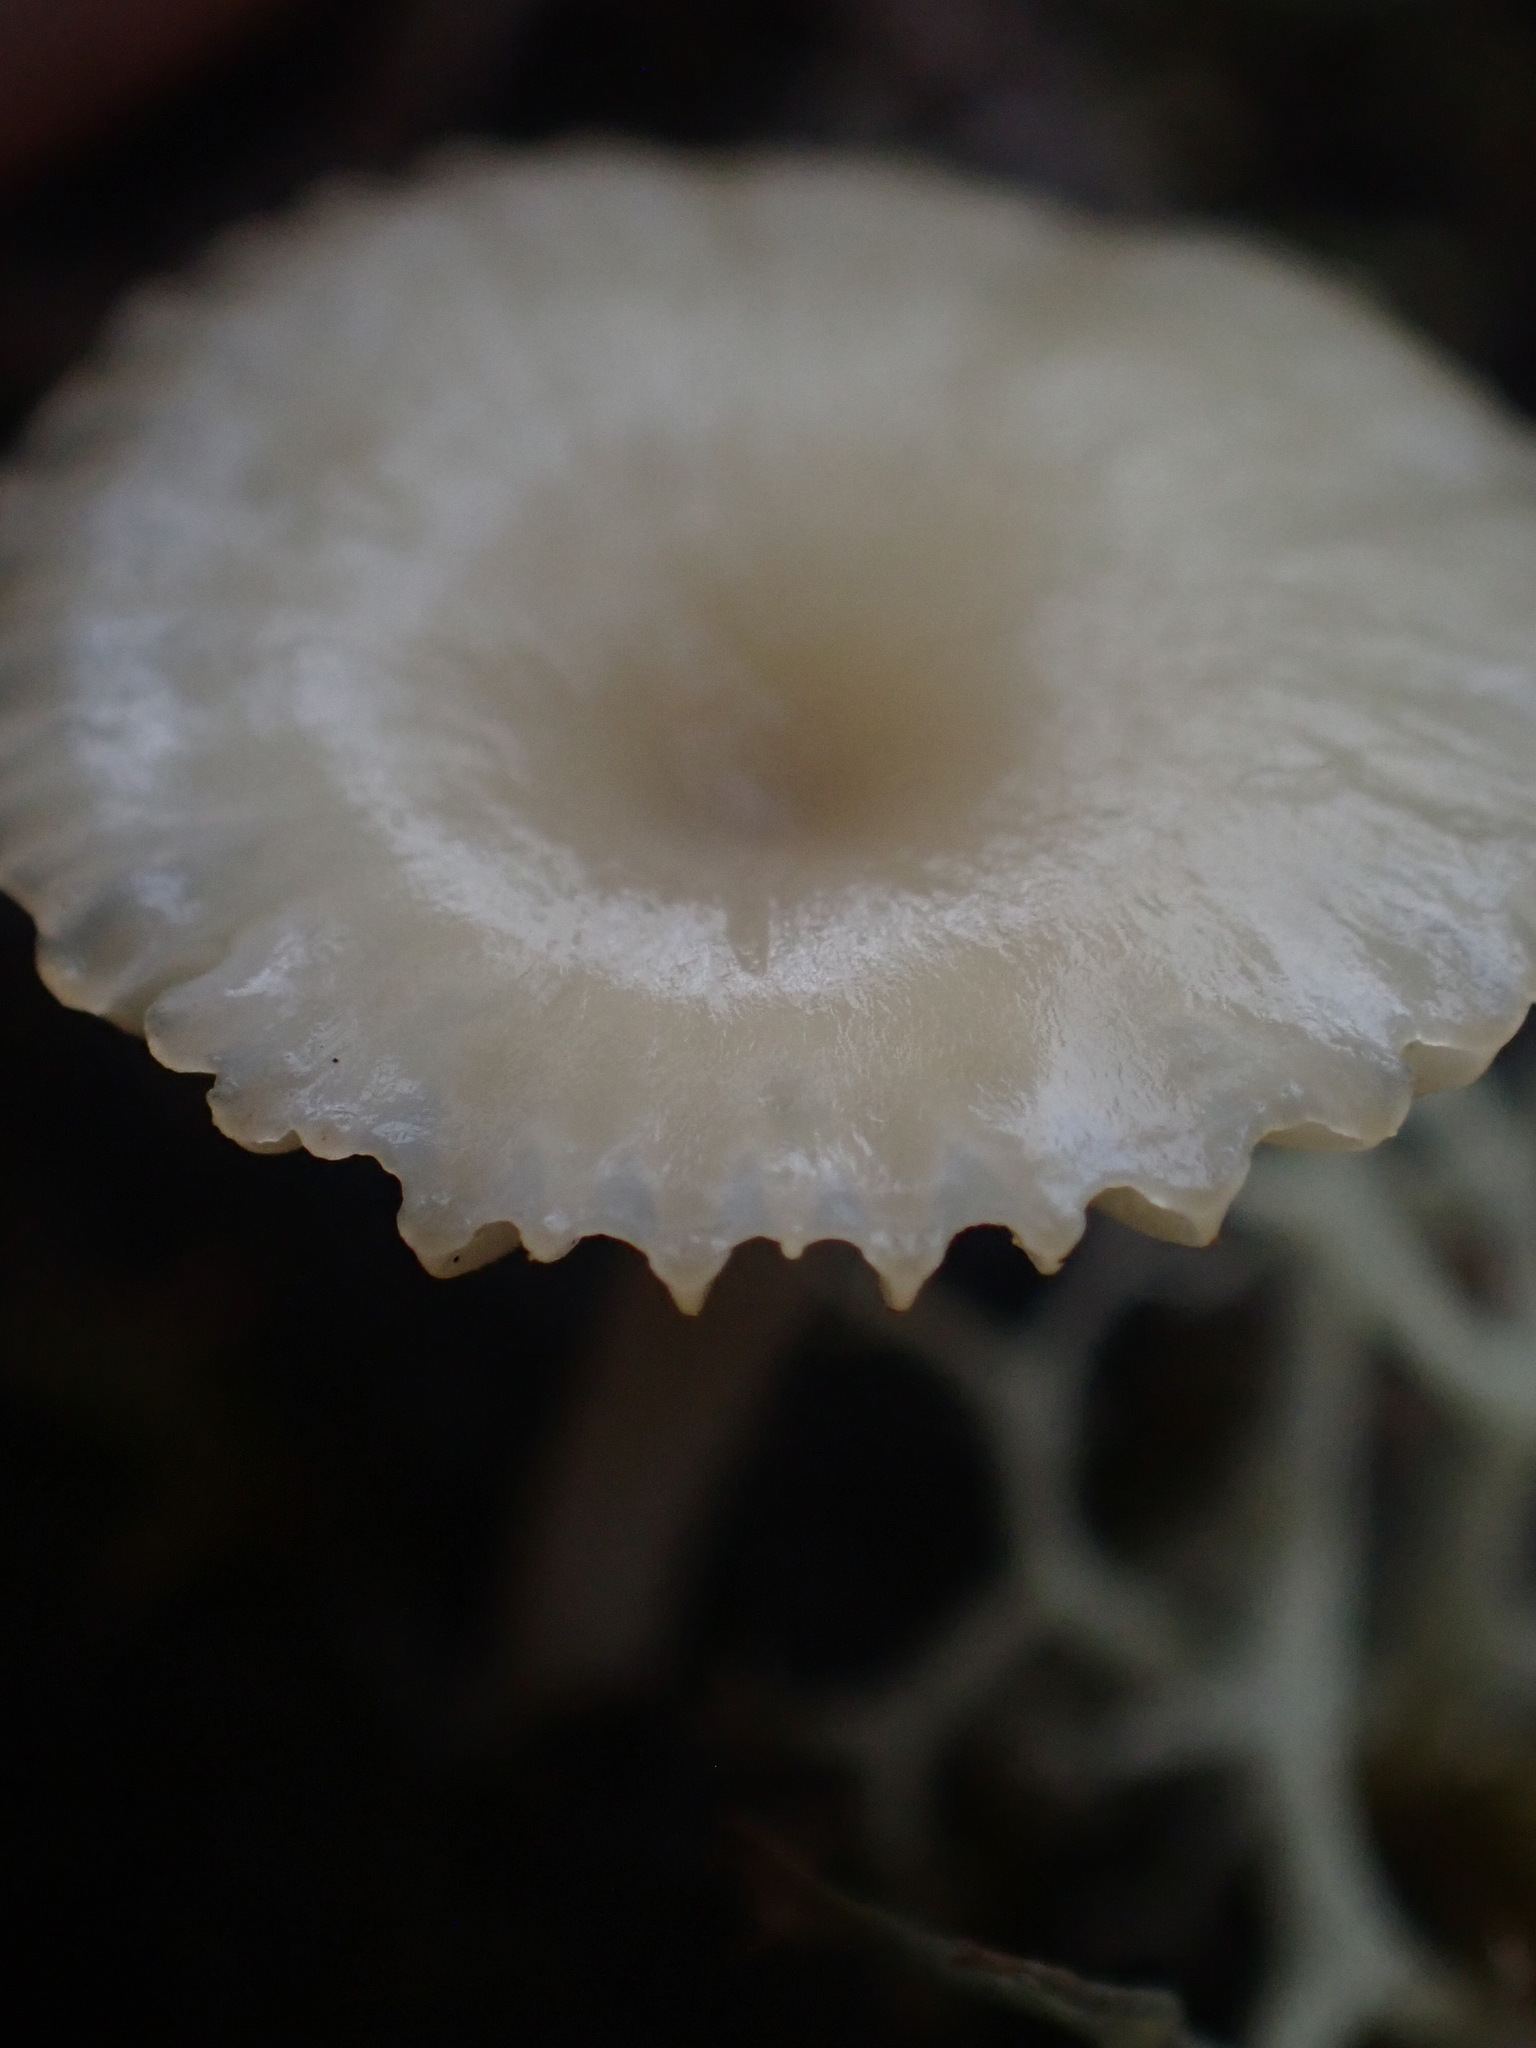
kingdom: Fungi
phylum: Basidiomycota
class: Agaricomycetes
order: Agaricales
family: Hygrophoraceae
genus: Lichenomphalia
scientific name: Lichenomphalia
